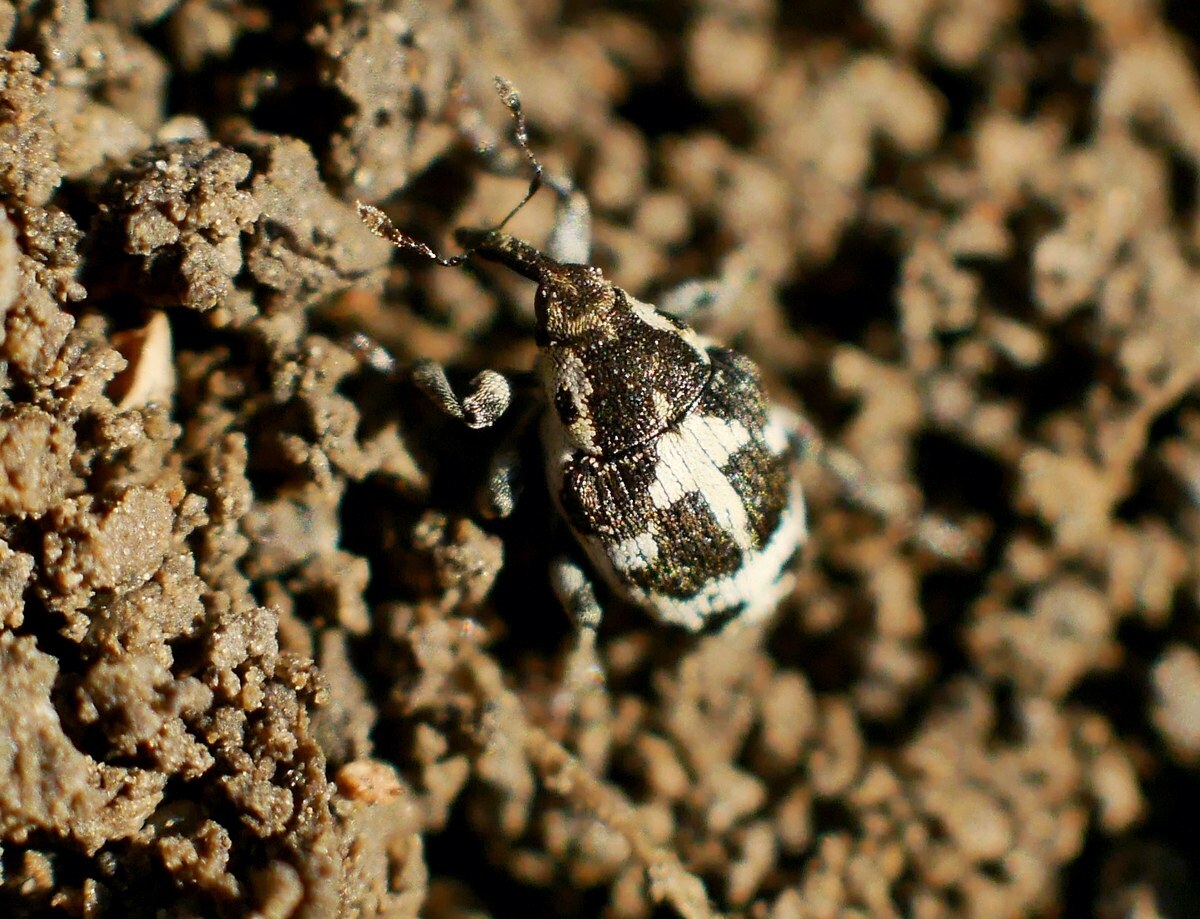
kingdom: Animalia
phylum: Arthropoda
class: Insecta
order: Coleoptera
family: Curculionidae
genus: Thamiocolus
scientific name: Thamiocolus sinapis
